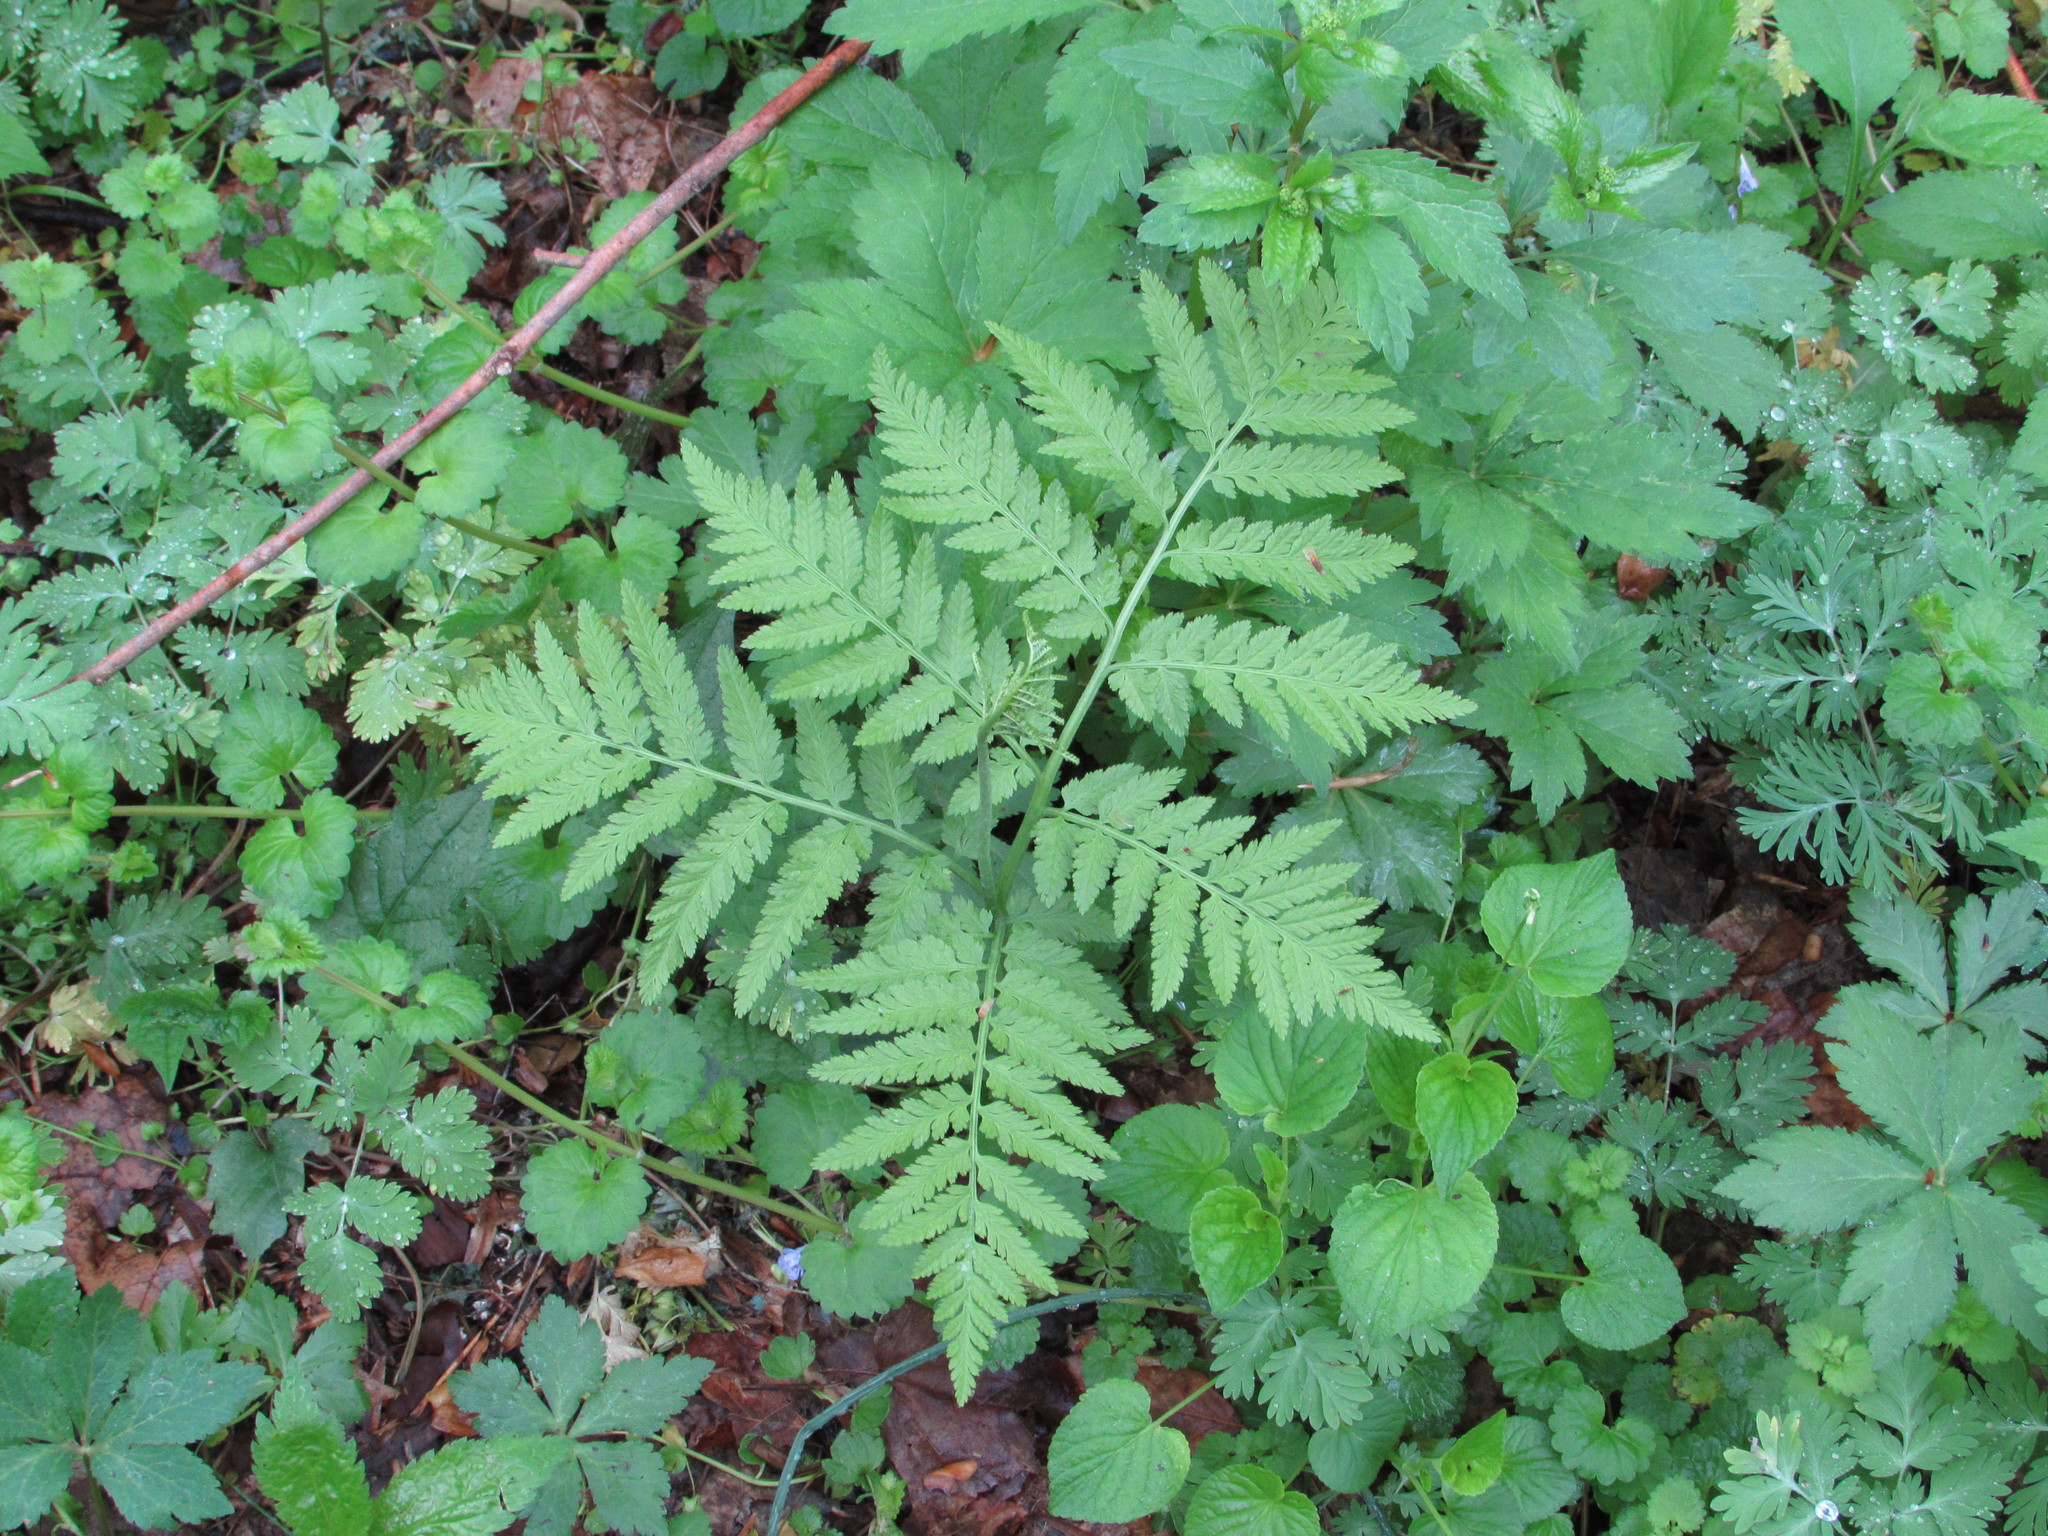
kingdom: Plantae
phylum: Tracheophyta
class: Polypodiopsida
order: Ophioglossales
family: Ophioglossaceae
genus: Botrypus
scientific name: Botrypus virginianus
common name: Common grapefern
